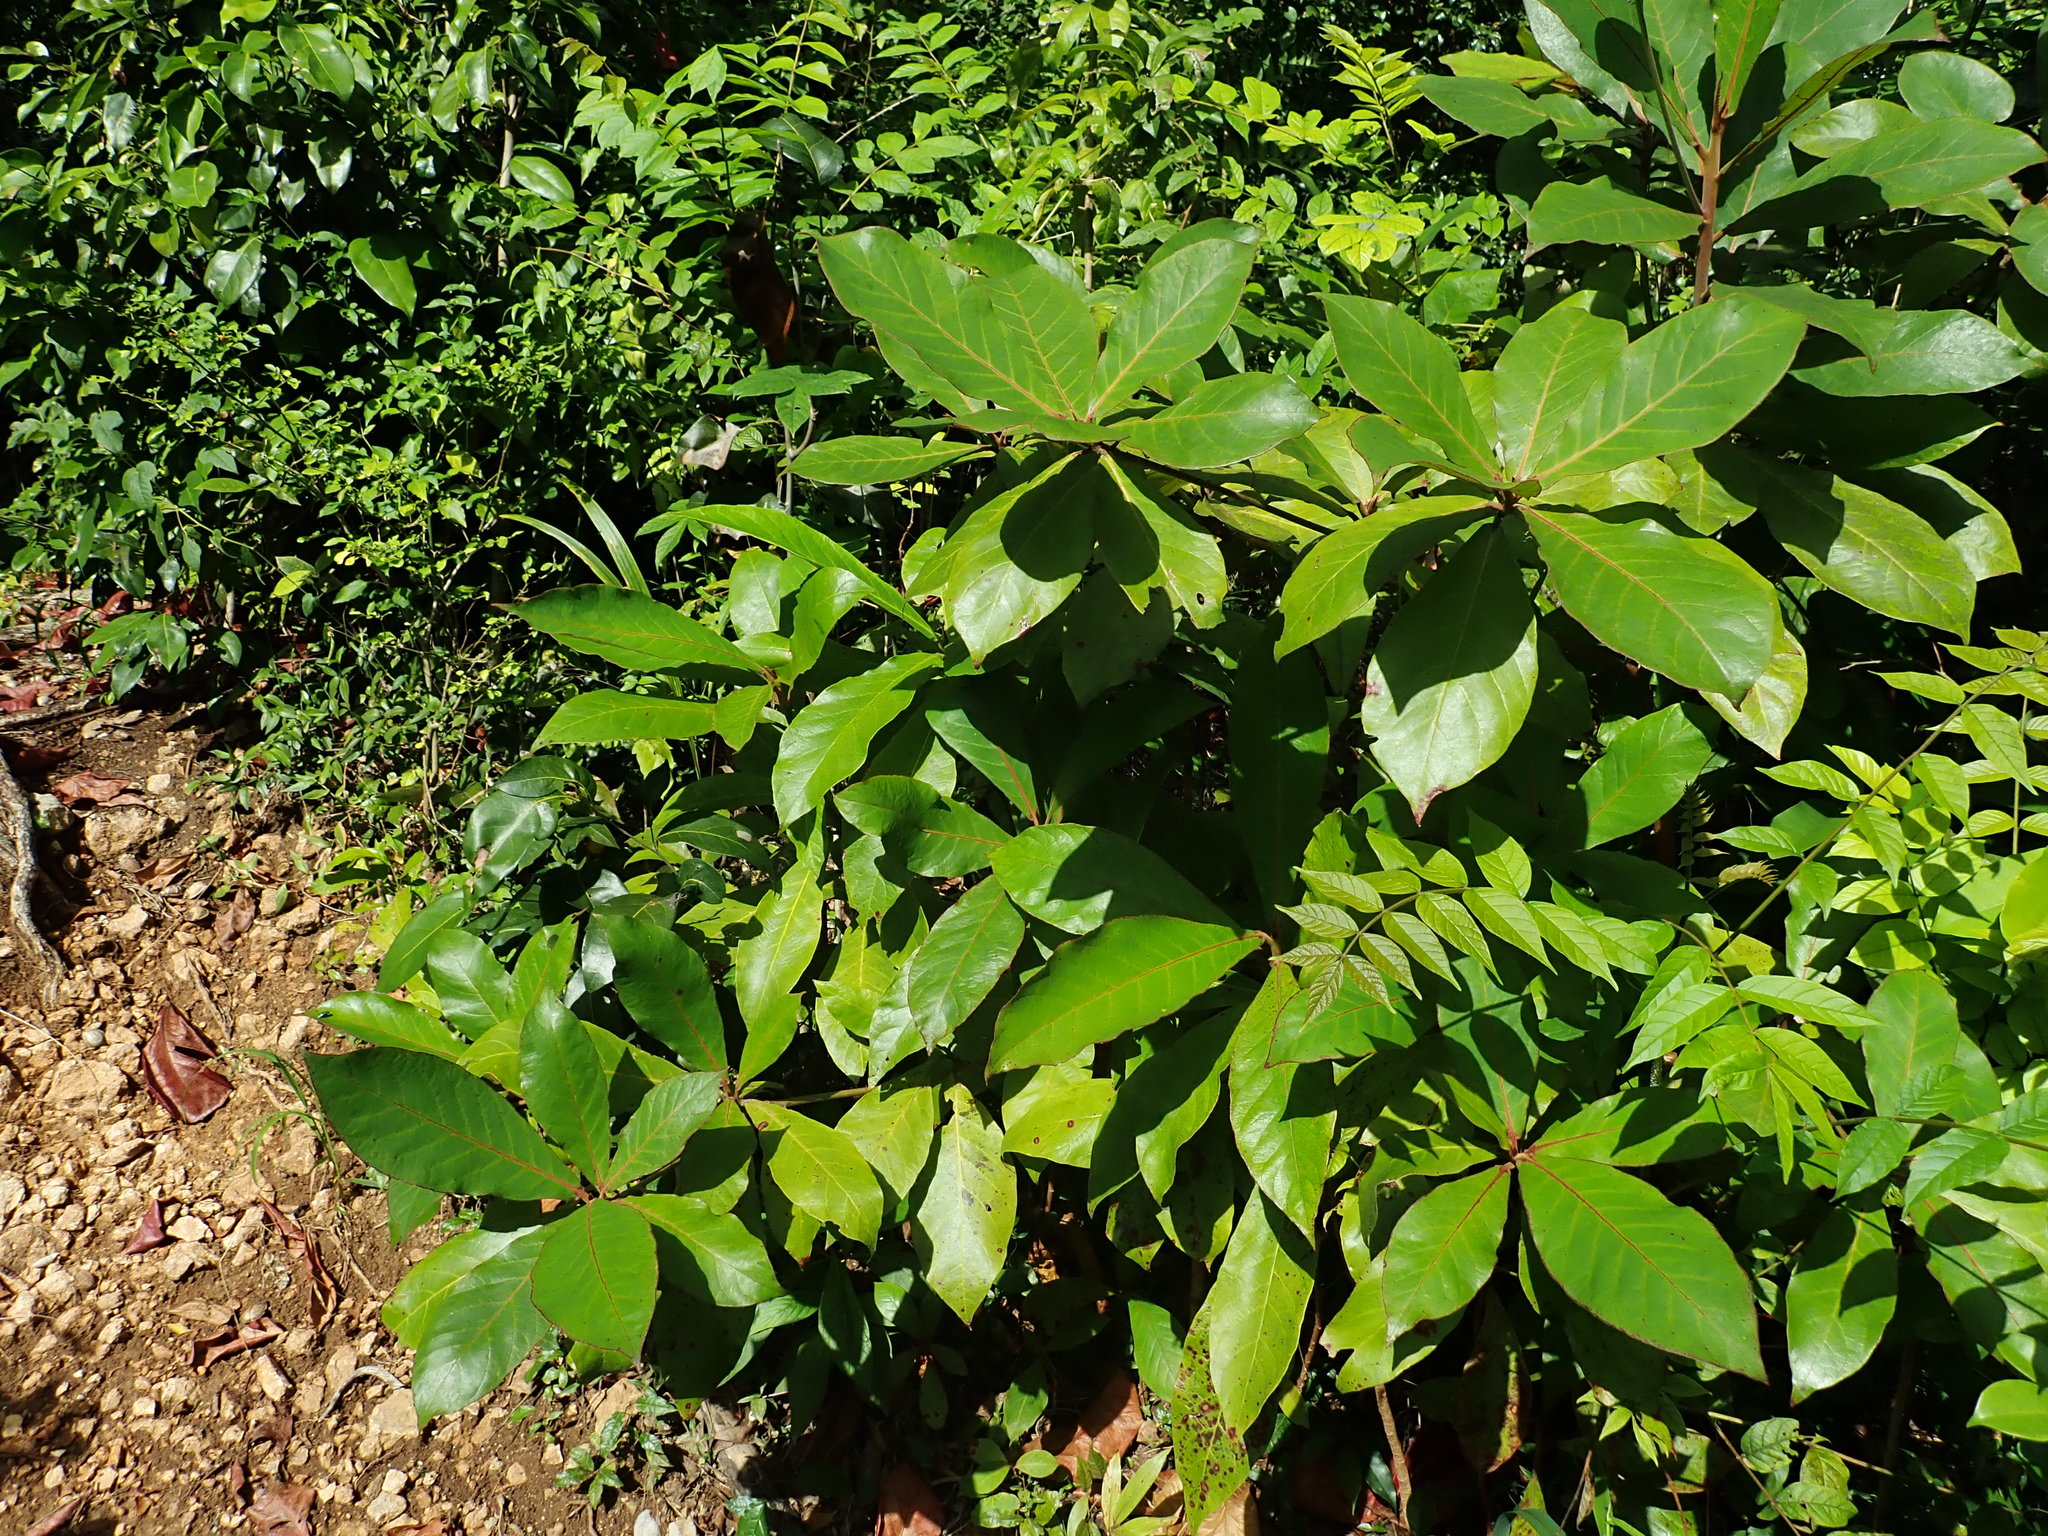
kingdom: Plantae
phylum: Tracheophyta
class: Magnoliopsida
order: Myrtales
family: Combretaceae
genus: Terminalia
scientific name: Terminalia catappa
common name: Tropical almond
